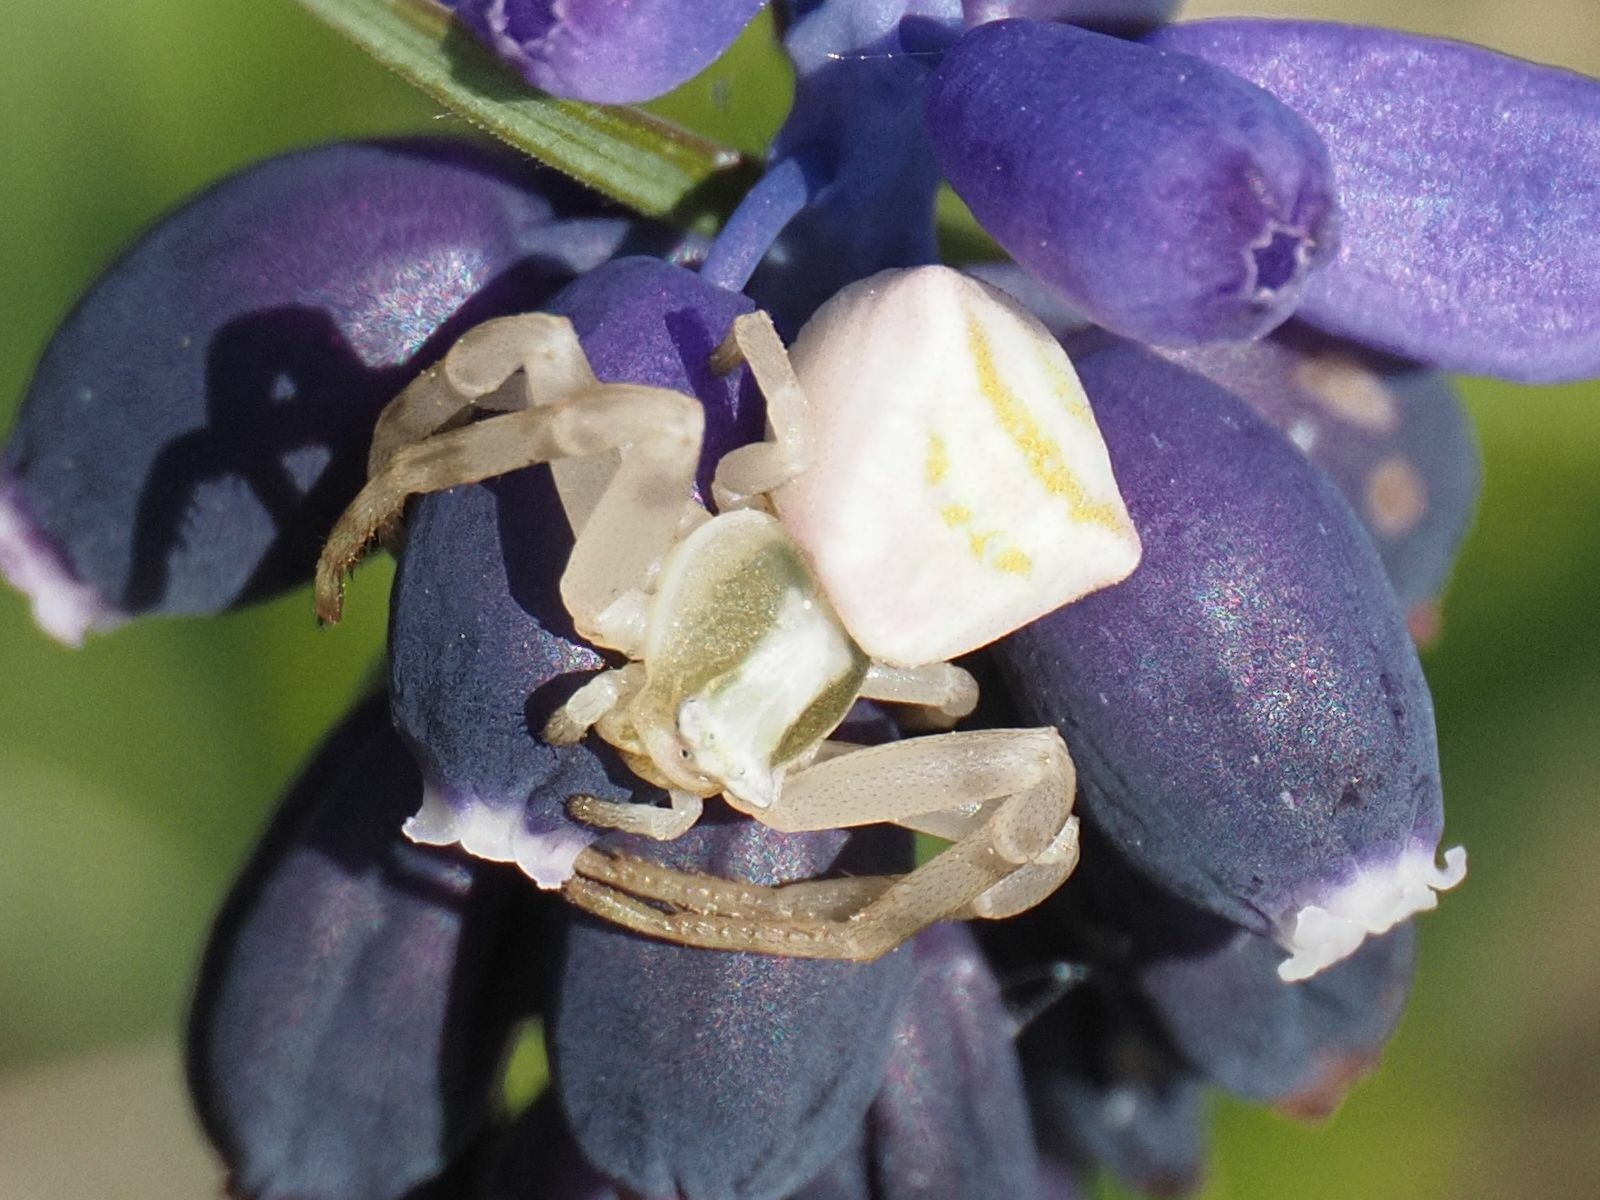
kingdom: Animalia
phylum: Arthropoda
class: Arachnida
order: Araneae
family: Thomisidae
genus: Thomisus
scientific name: Thomisus onustus
